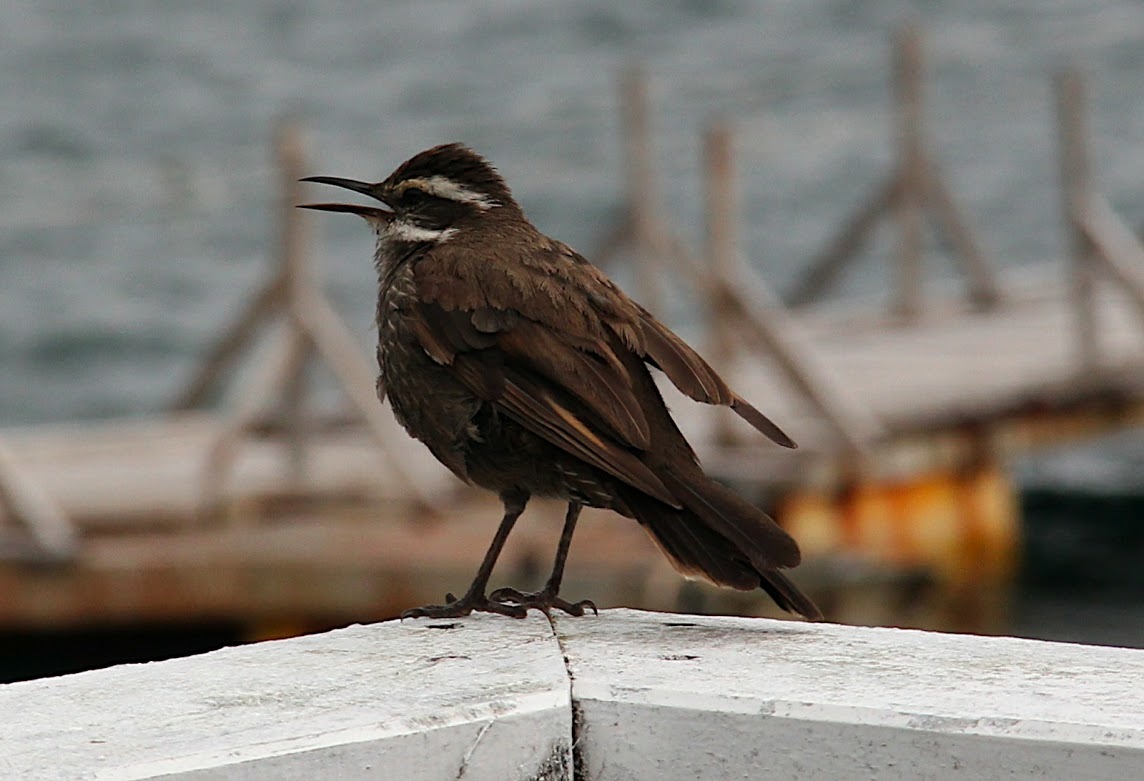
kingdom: Animalia
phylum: Chordata
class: Aves
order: Passeriformes
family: Furnariidae
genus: Cinclodes
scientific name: Cinclodes patagonicus
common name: Dark-bellied cinclodes
